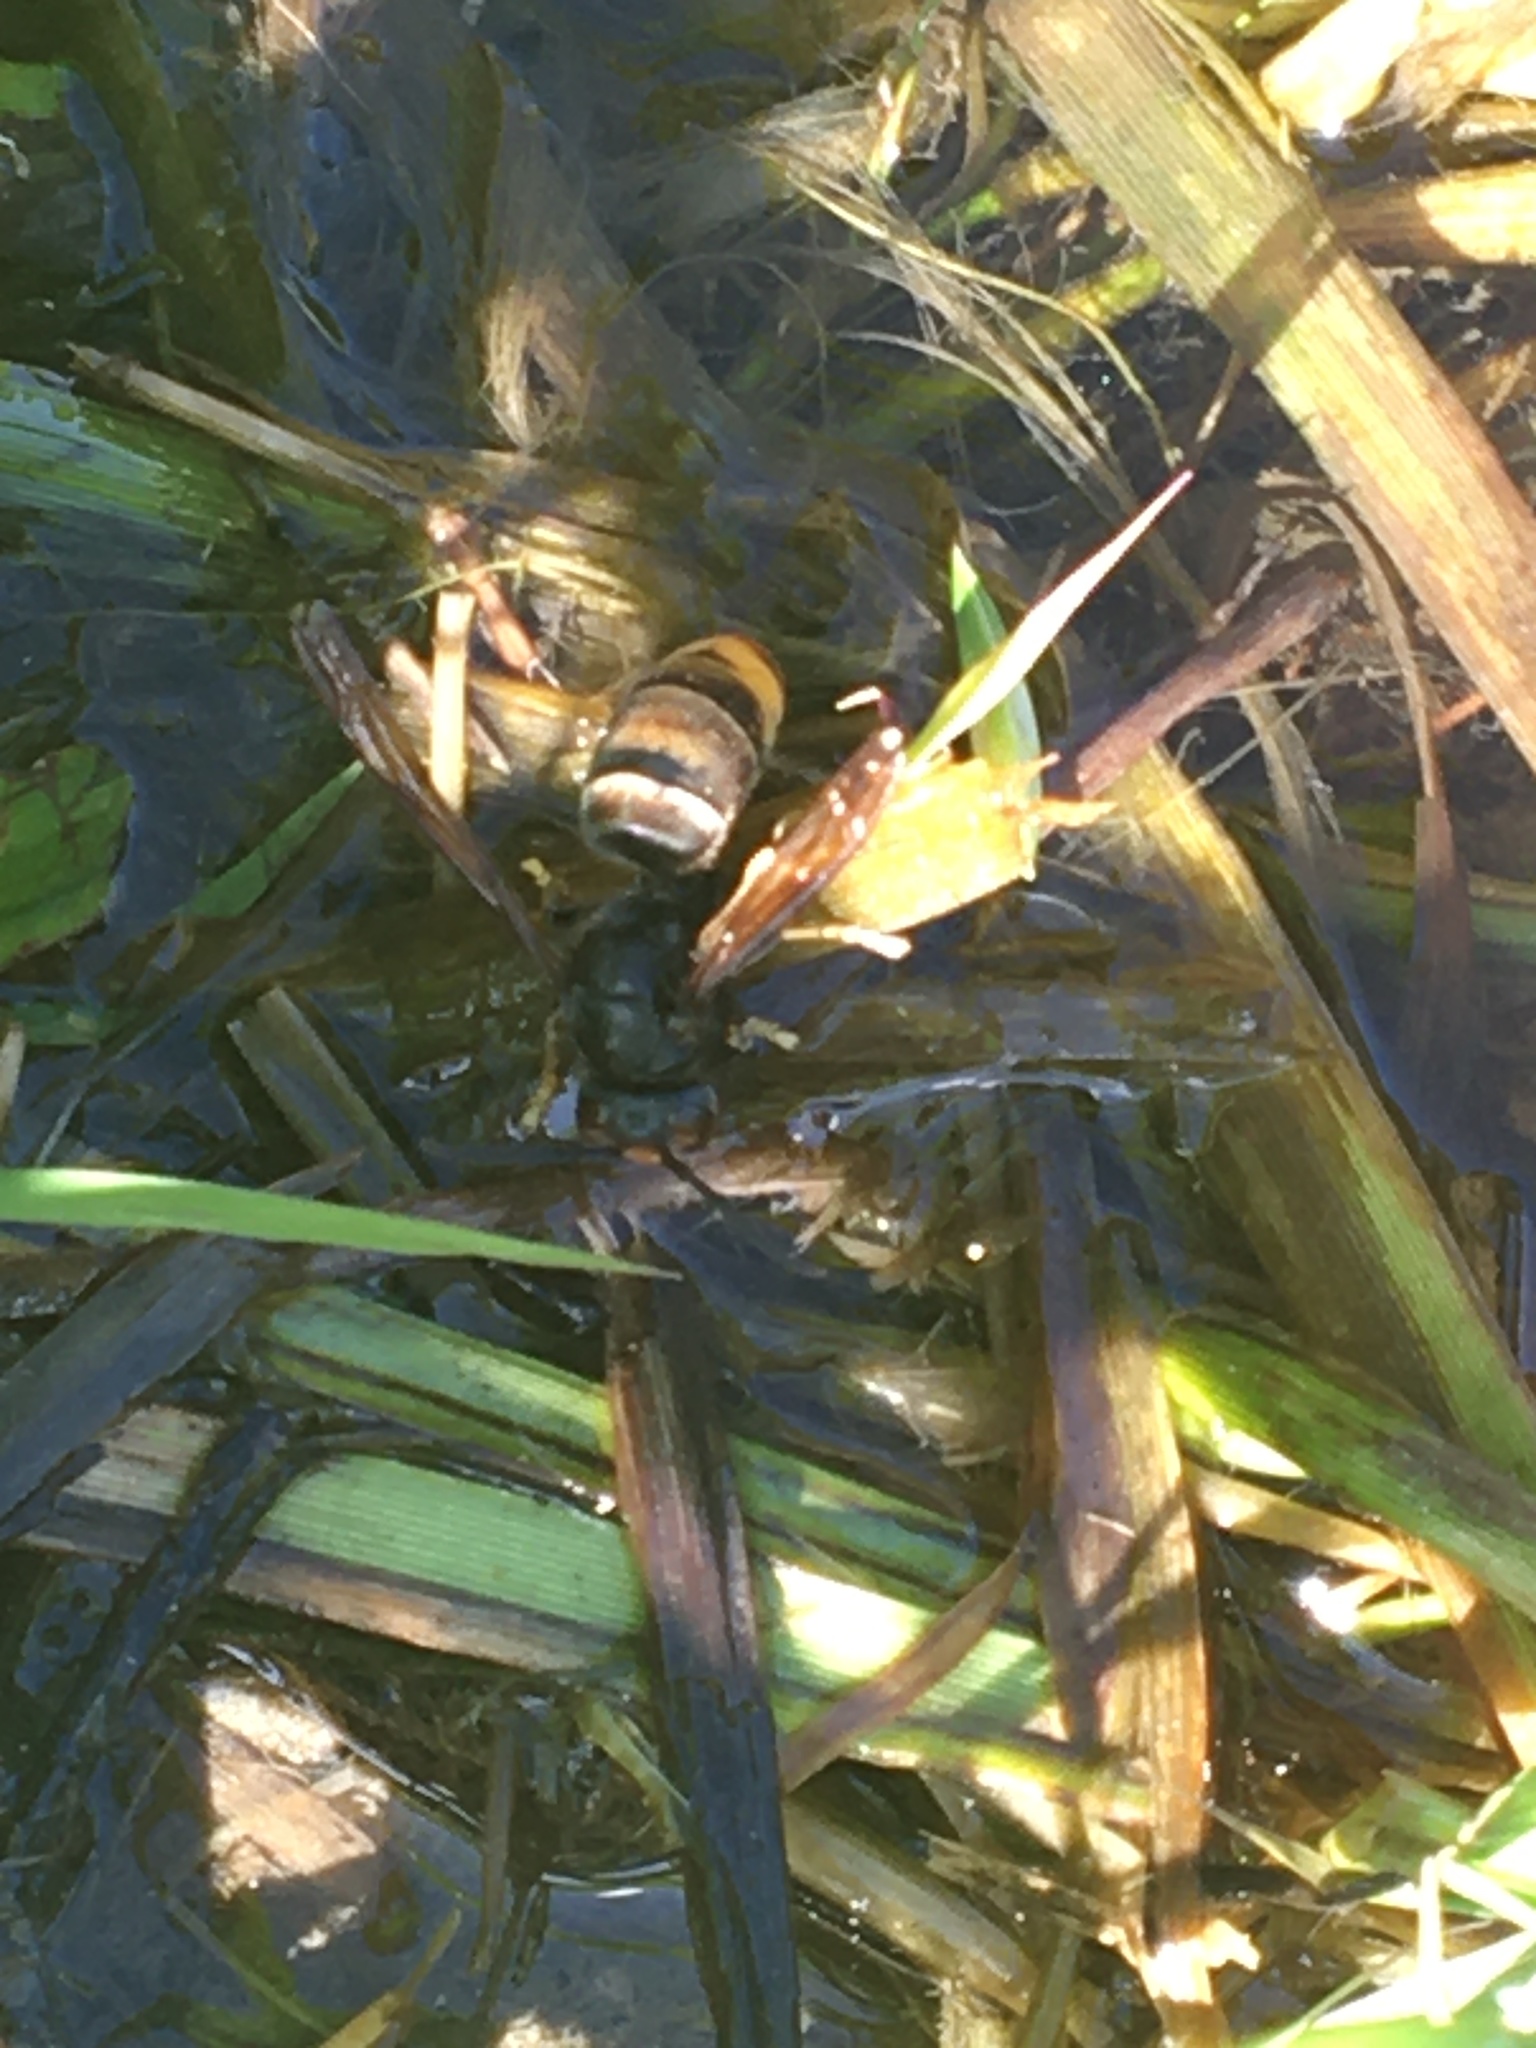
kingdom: Animalia
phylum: Arthropoda
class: Insecta
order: Hymenoptera
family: Vespidae
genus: Vespa
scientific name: Vespa velutina
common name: Asian hornet
